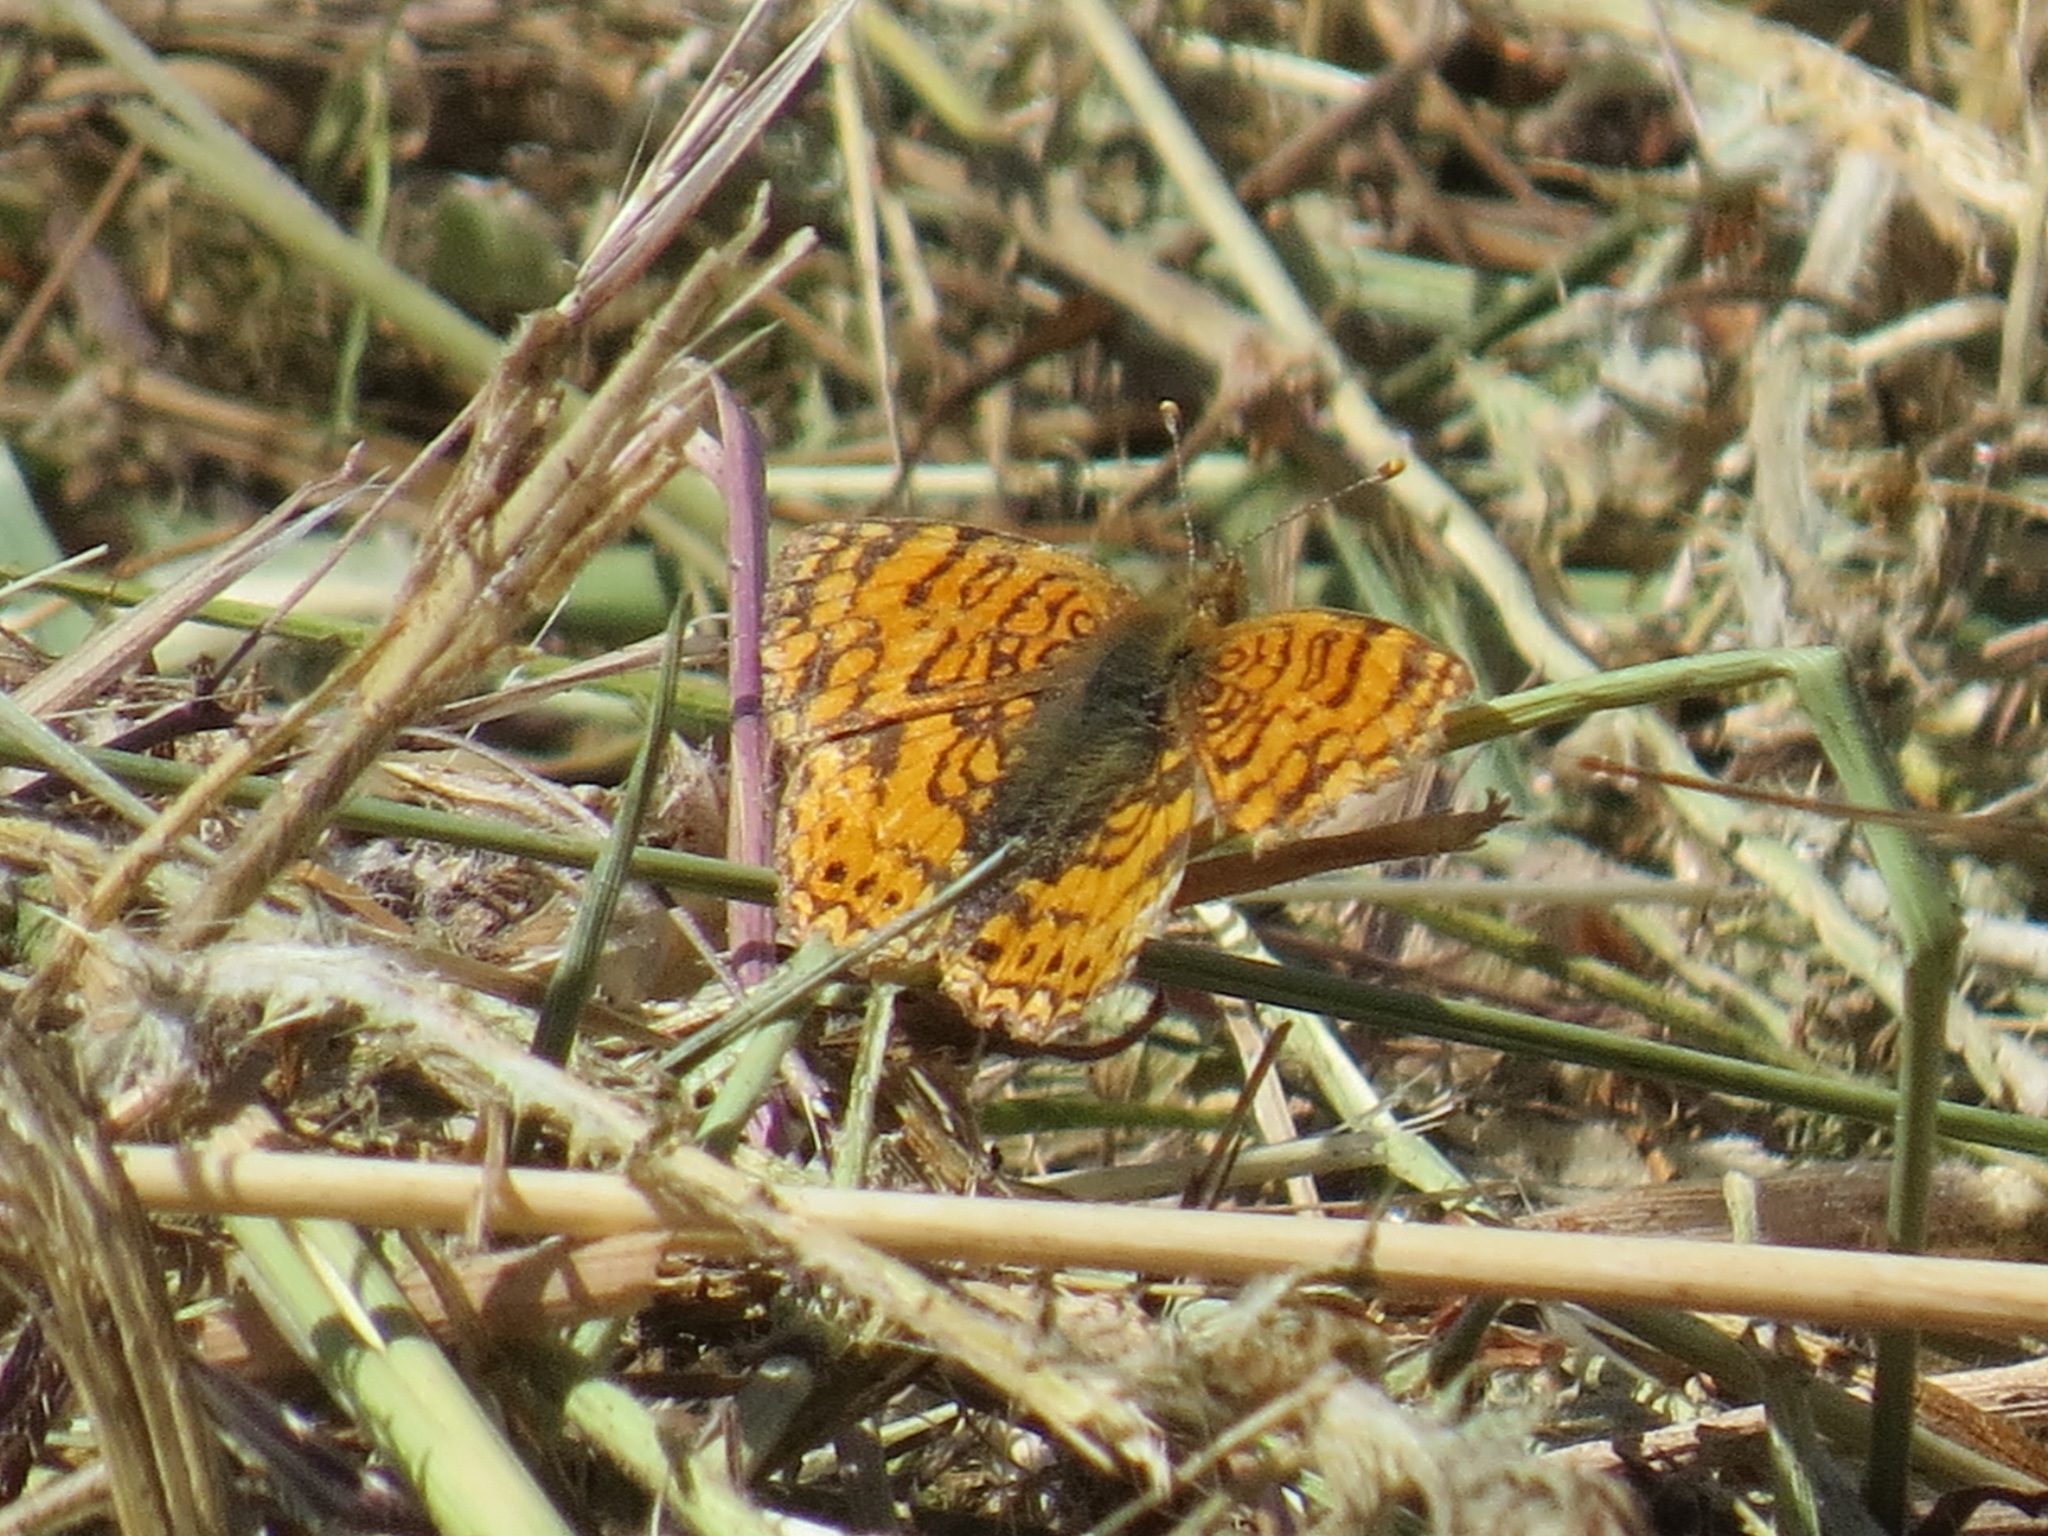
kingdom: Animalia
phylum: Arthropoda
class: Insecta
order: Lepidoptera
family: Nymphalidae
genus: Eresia
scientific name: Eresia aveyrona
